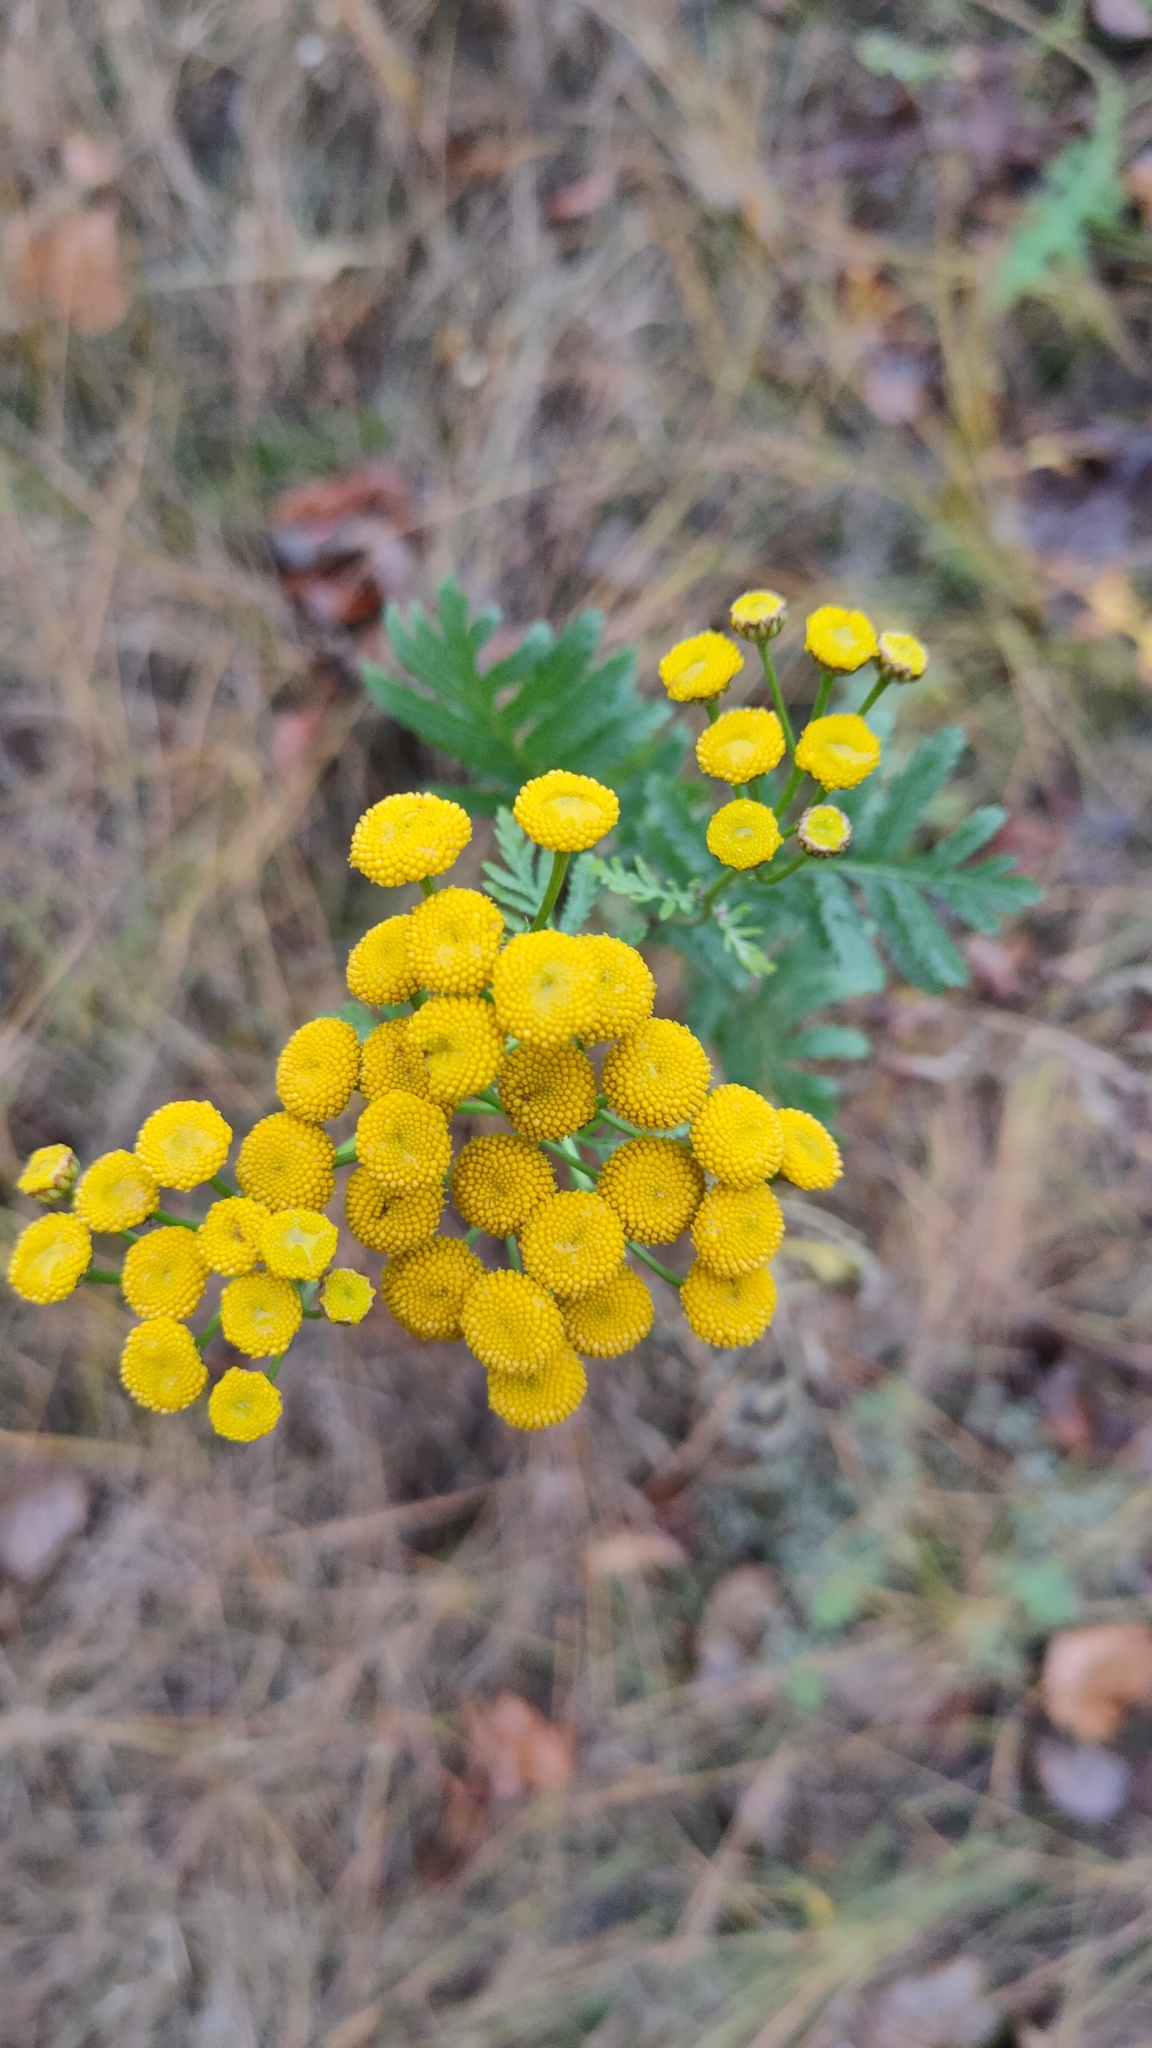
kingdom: Plantae
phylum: Tracheophyta
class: Magnoliopsida
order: Asterales
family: Asteraceae
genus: Tanacetum
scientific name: Tanacetum vulgare
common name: Common tansy
